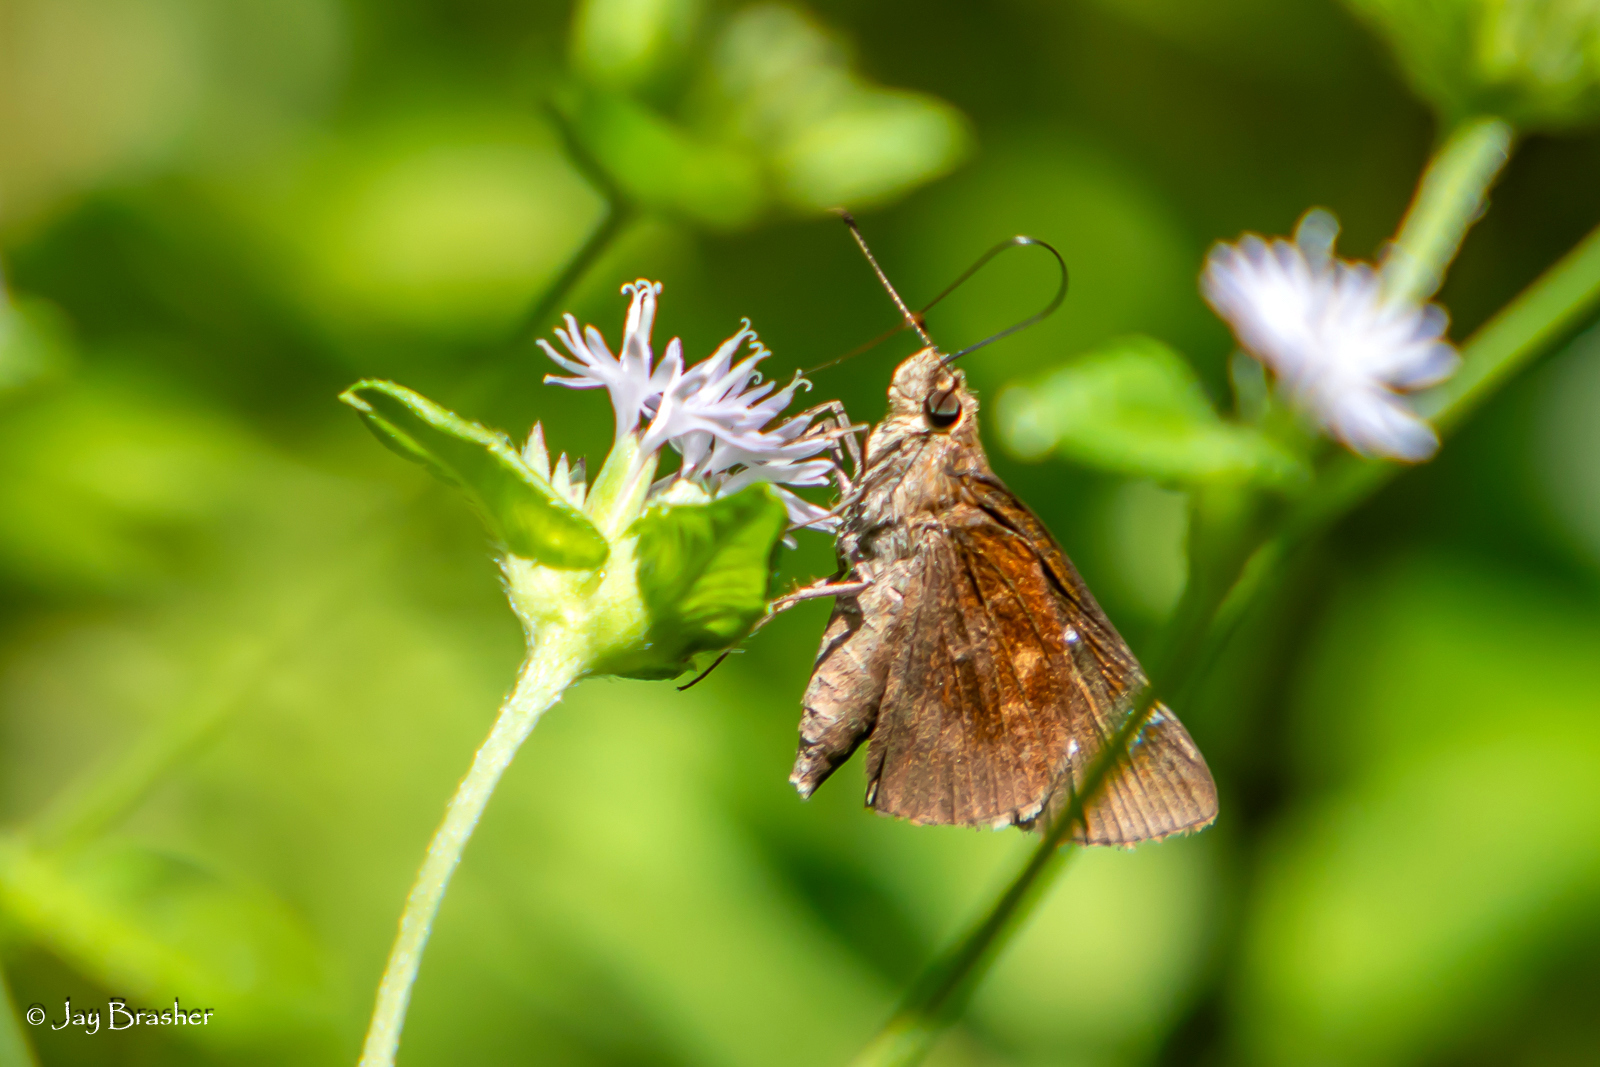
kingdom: Animalia
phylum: Arthropoda
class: Insecta
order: Lepidoptera
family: Hesperiidae
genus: Lerema
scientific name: Lerema accius
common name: Clouded skipper
